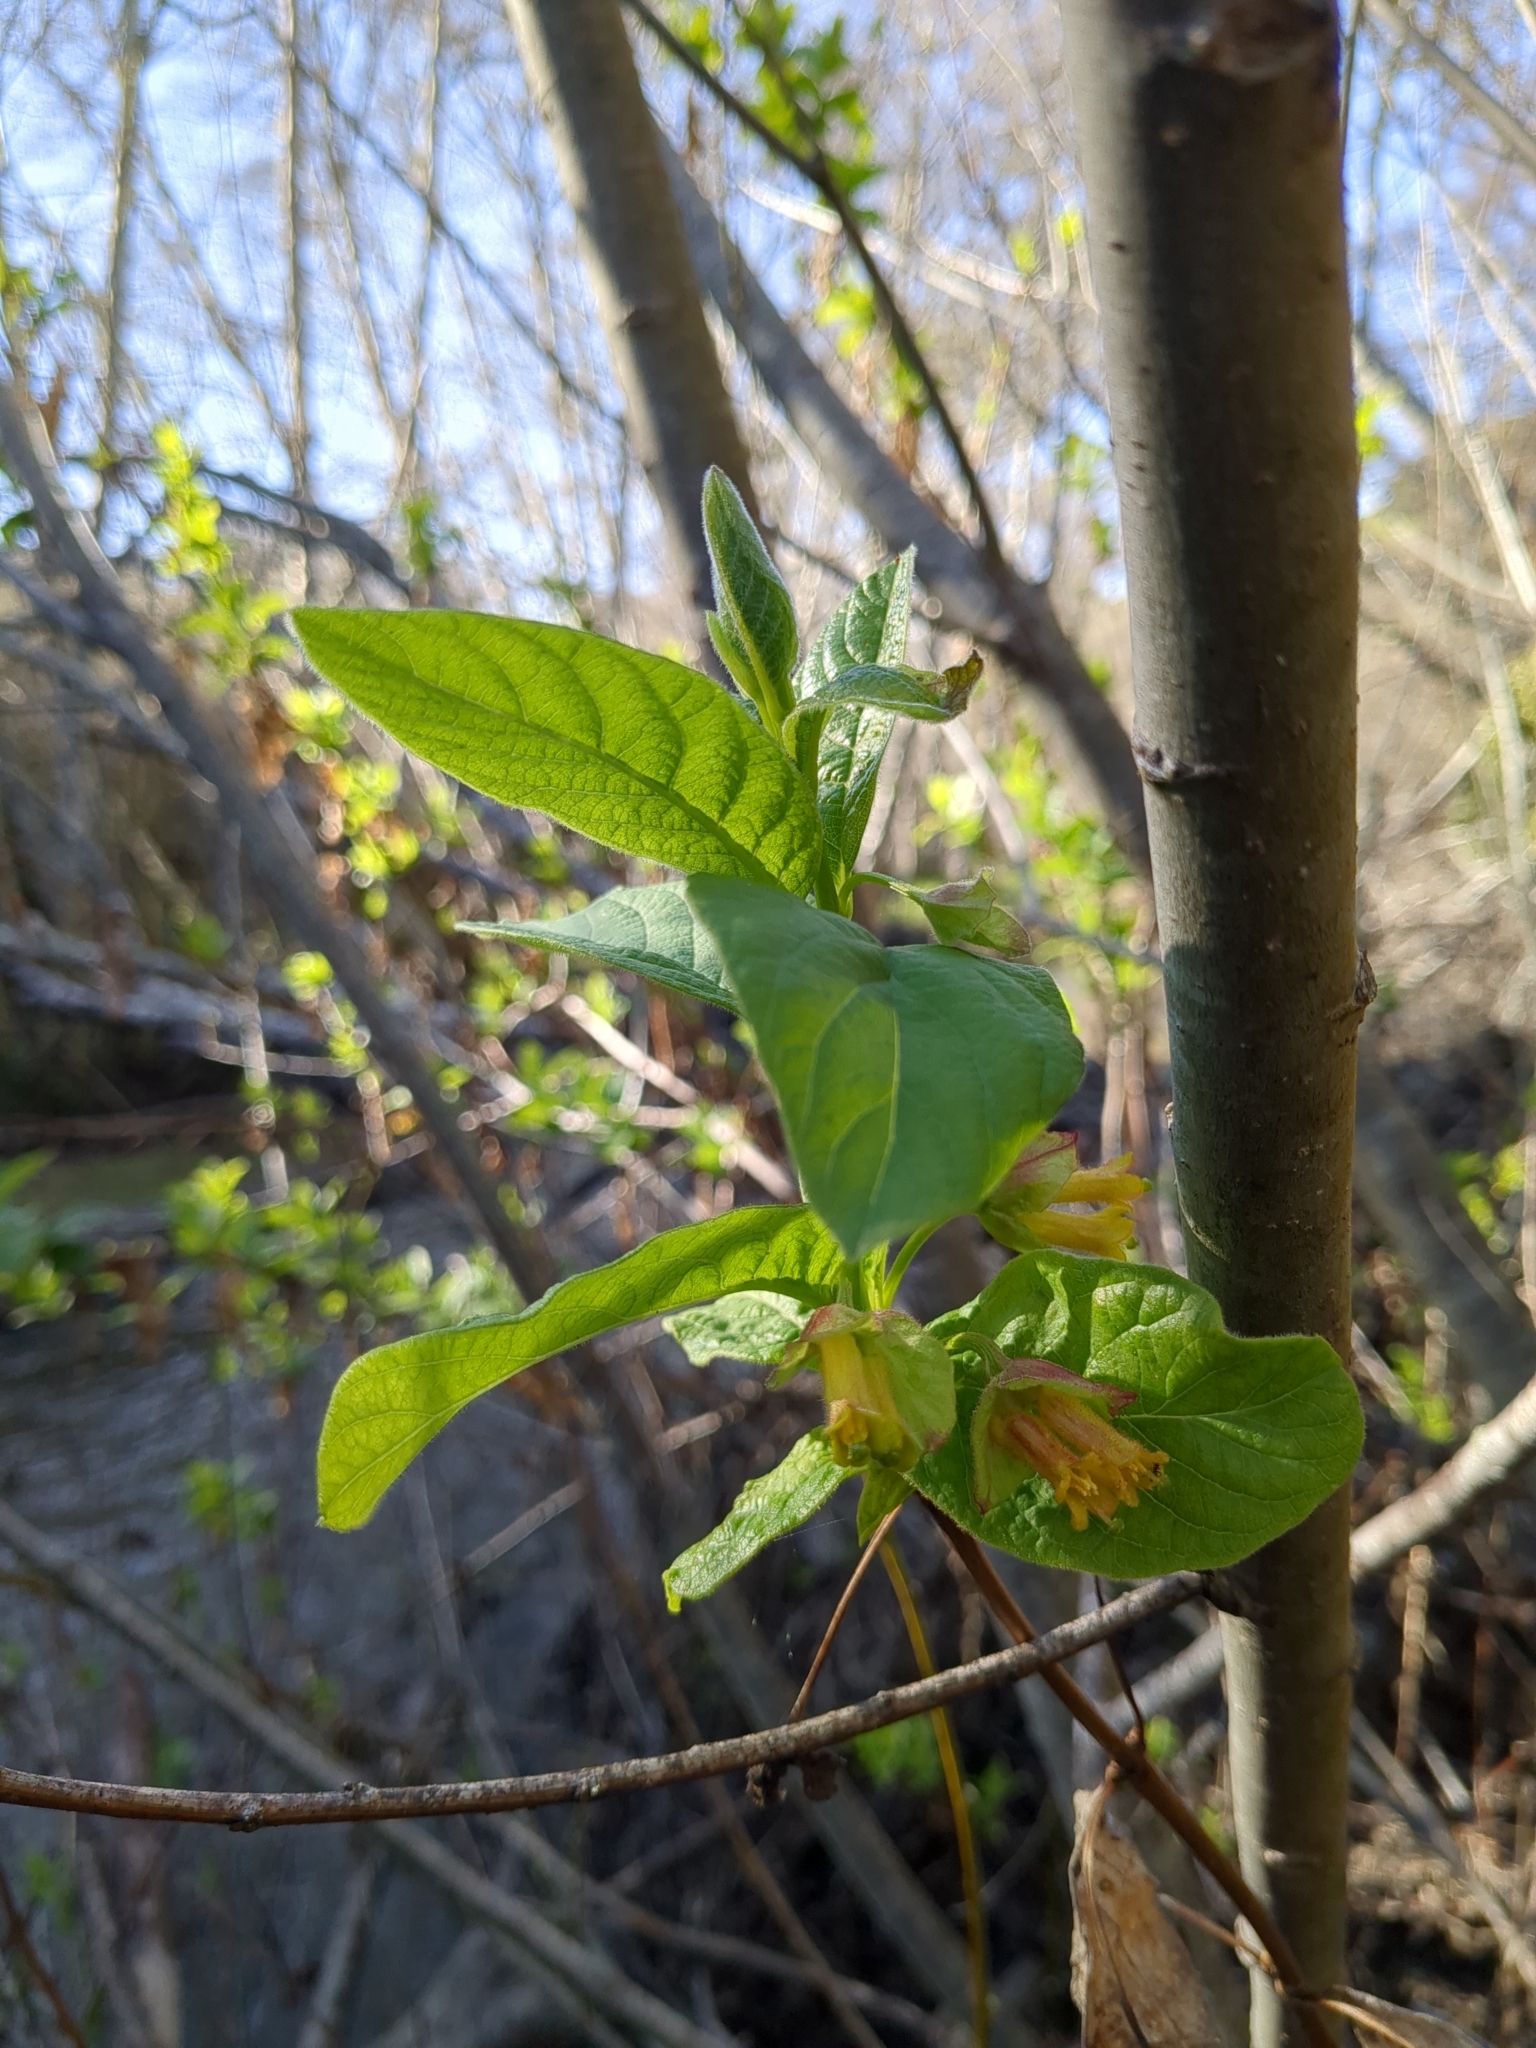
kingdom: Plantae
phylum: Tracheophyta
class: Magnoliopsida
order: Dipsacales
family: Caprifoliaceae
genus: Lonicera
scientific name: Lonicera involucrata
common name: Californian honeysuckle
